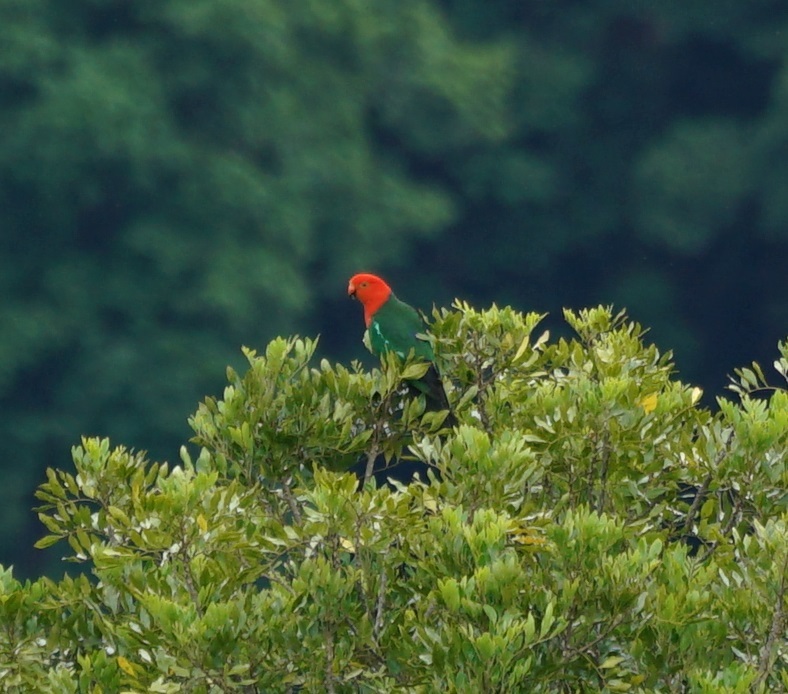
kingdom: Animalia
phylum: Chordata
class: Aves
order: Psittaciformes
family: Psittacidae
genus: Alisterus
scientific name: Alisterus scapularis
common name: Australian king parrot
